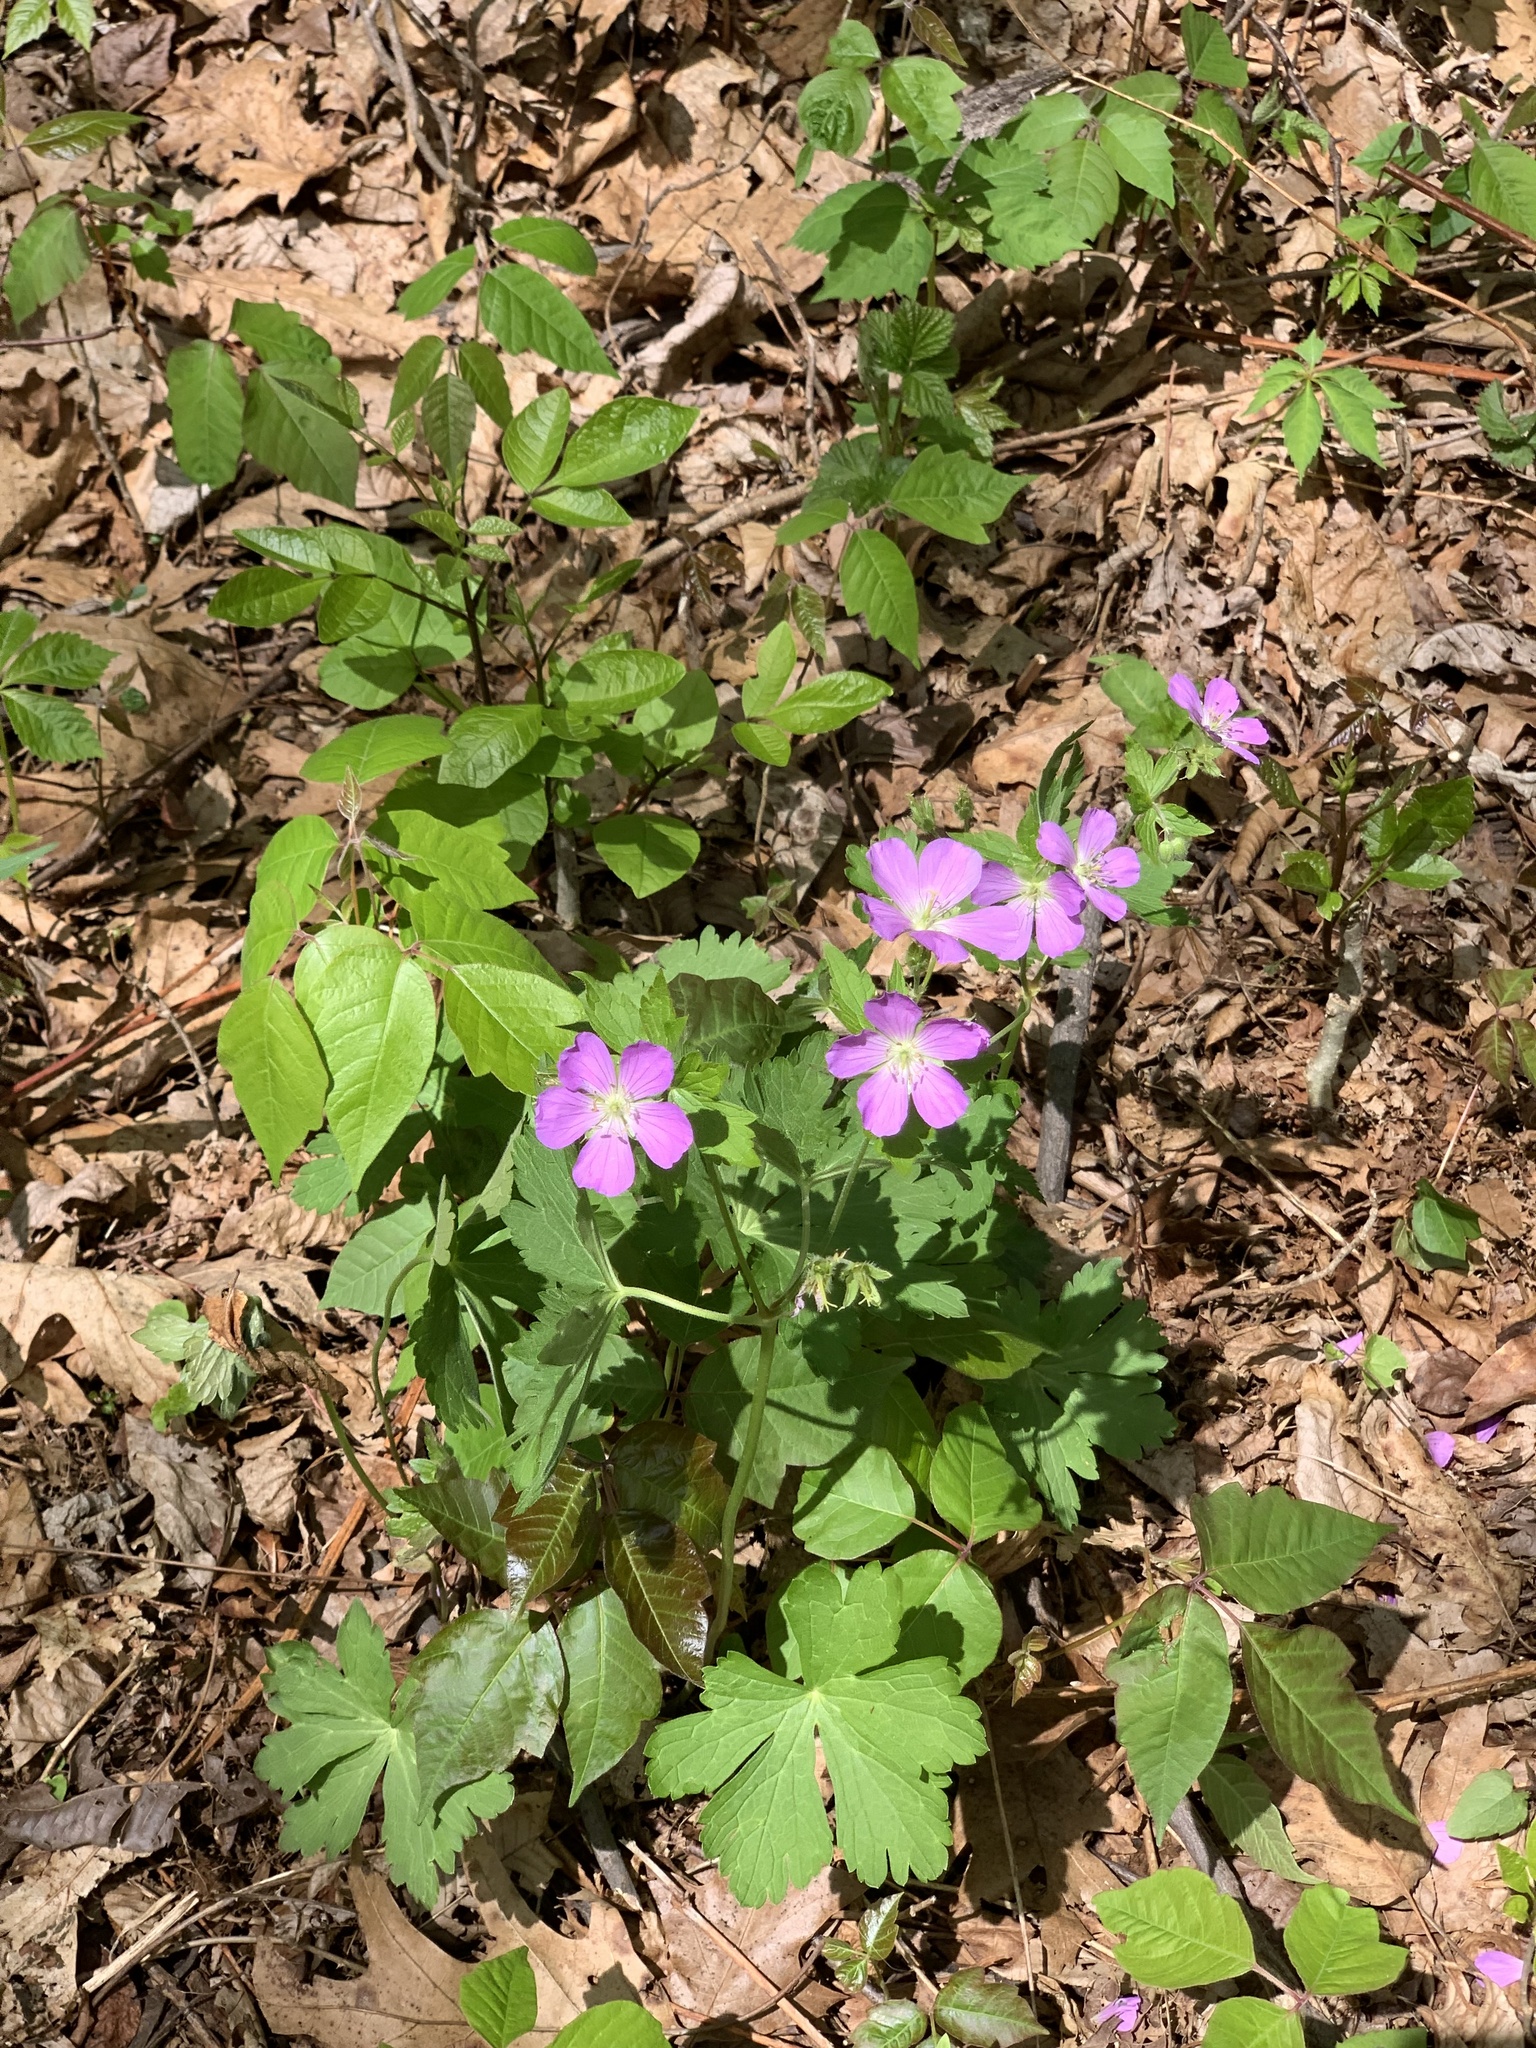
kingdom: Plantae
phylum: Tracheophyta
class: Magnoliopsida
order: Geraniales
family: Geraniaceae
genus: Geranium
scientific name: Geranium maculatum
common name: Spotted geranium
